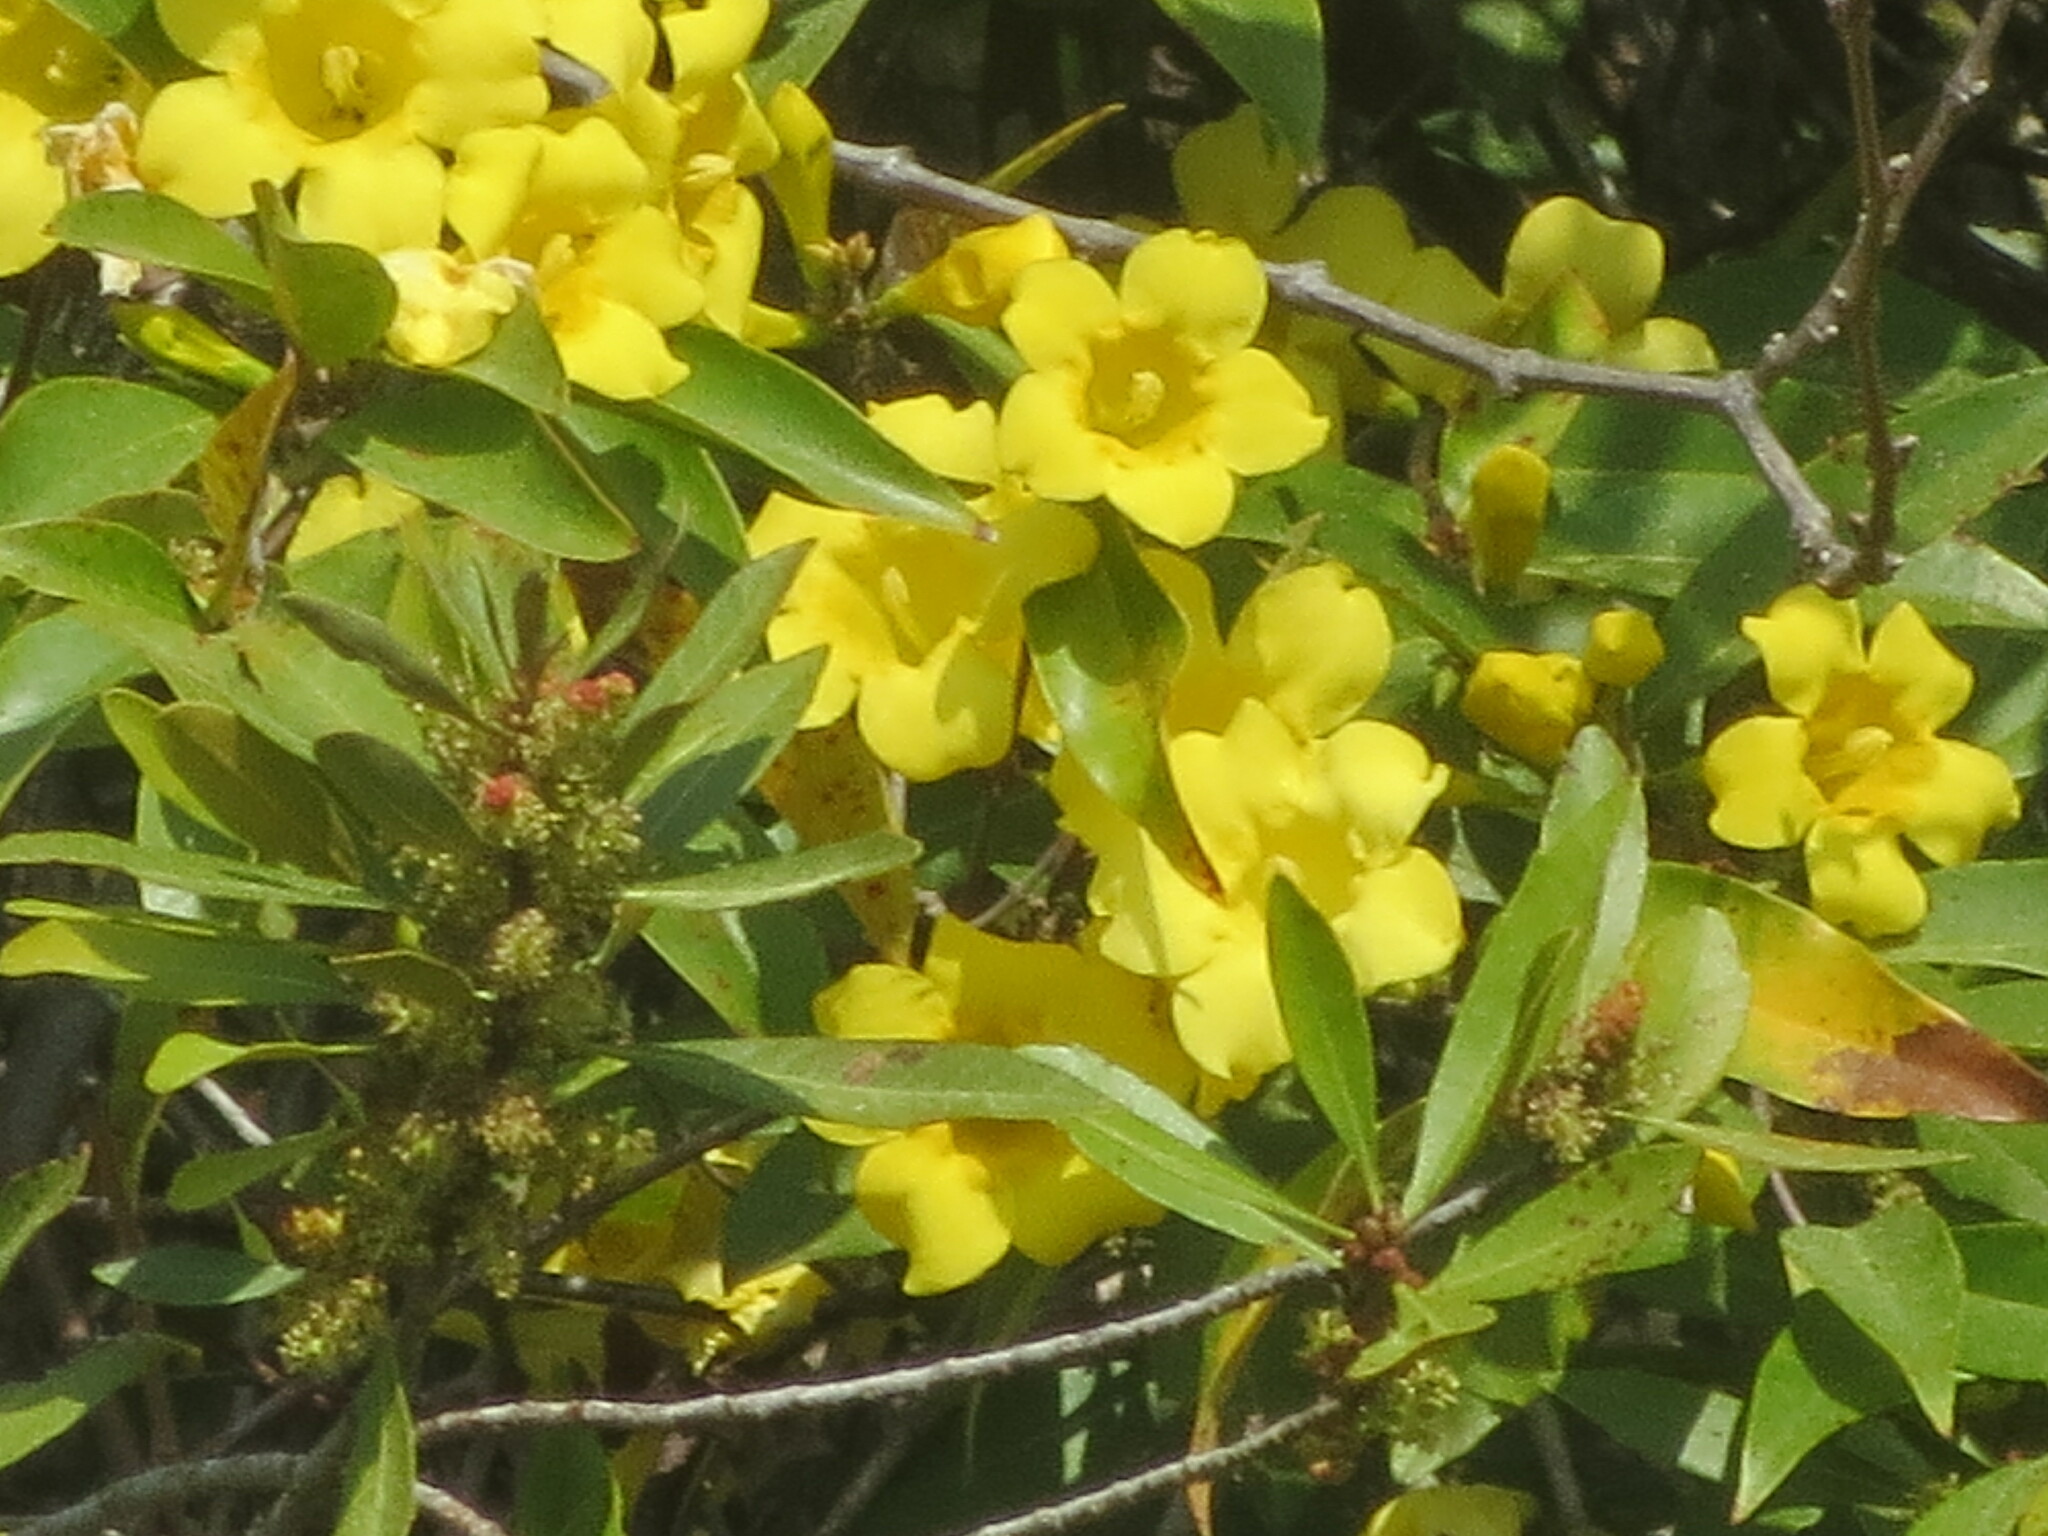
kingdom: Plantae
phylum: Tracheophyta
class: Magnoliopsida
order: Gentianales
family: Gelsemiaceae
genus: Gelsemium
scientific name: Gelsemium sempervirens
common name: Carolina-jasmine
